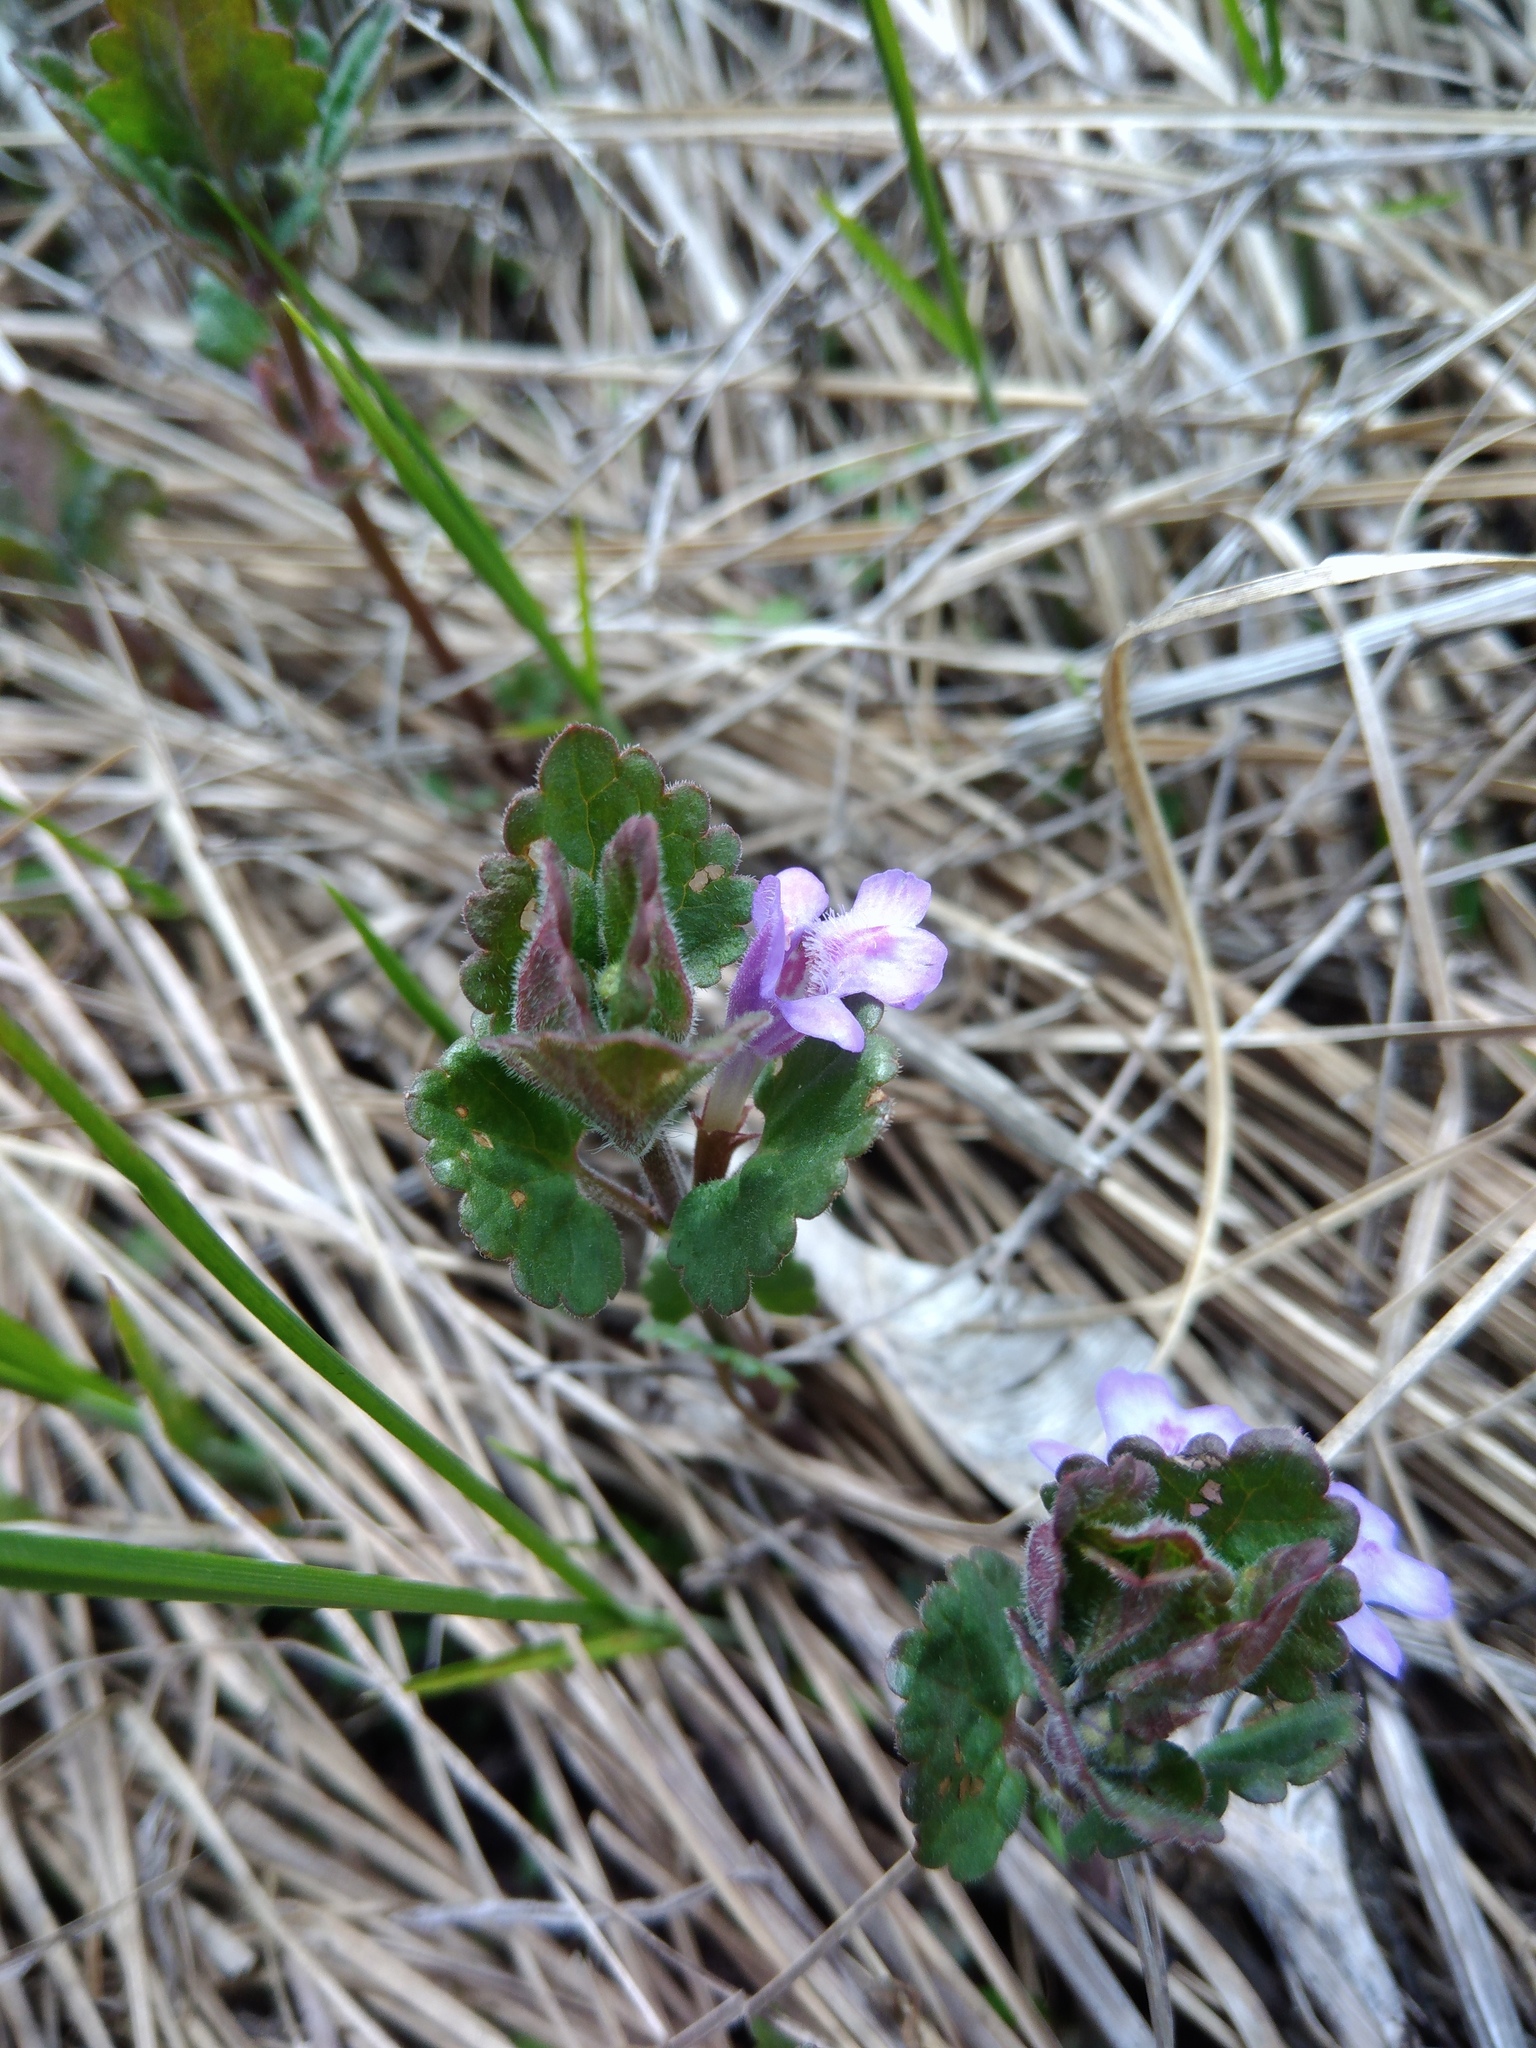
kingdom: Plantae
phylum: Tracheophyta
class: Magnoliopsida
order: Lamiales
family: Lamiaceae
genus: Glechoma
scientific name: Glechoma hederacea
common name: Ground ivy
